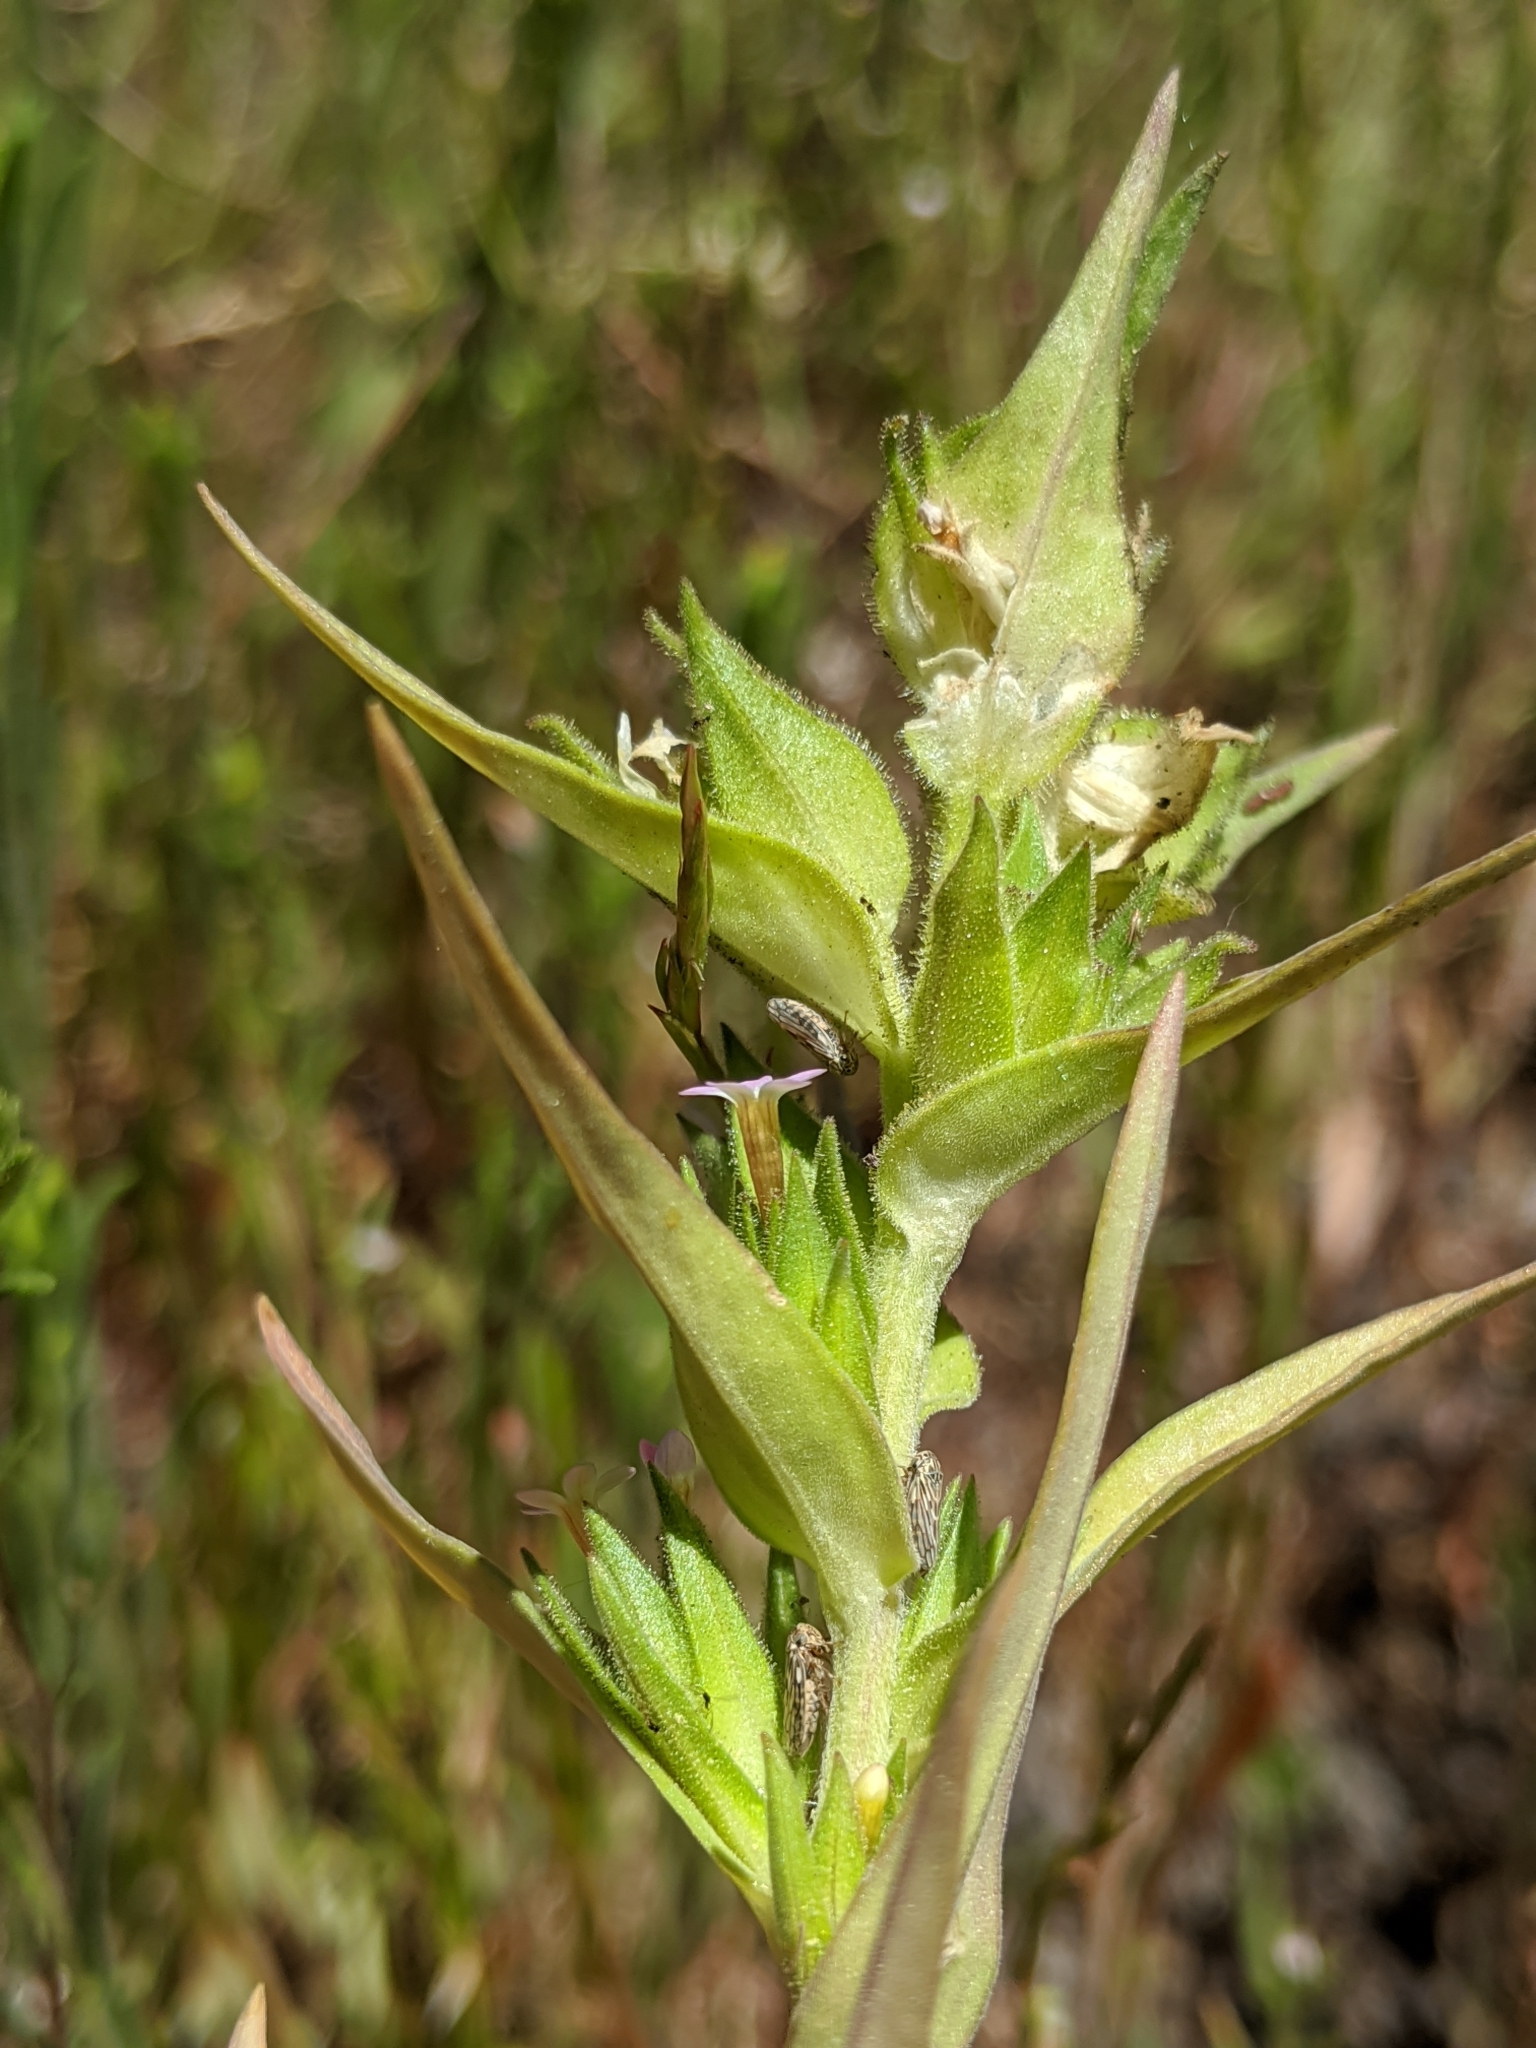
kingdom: Plantae
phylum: Tracheophyta
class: Magnoliopsida
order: Ericales
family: Polemoniaceae
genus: Collomia
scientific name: Collomia linearis
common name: Tiny trumpet
